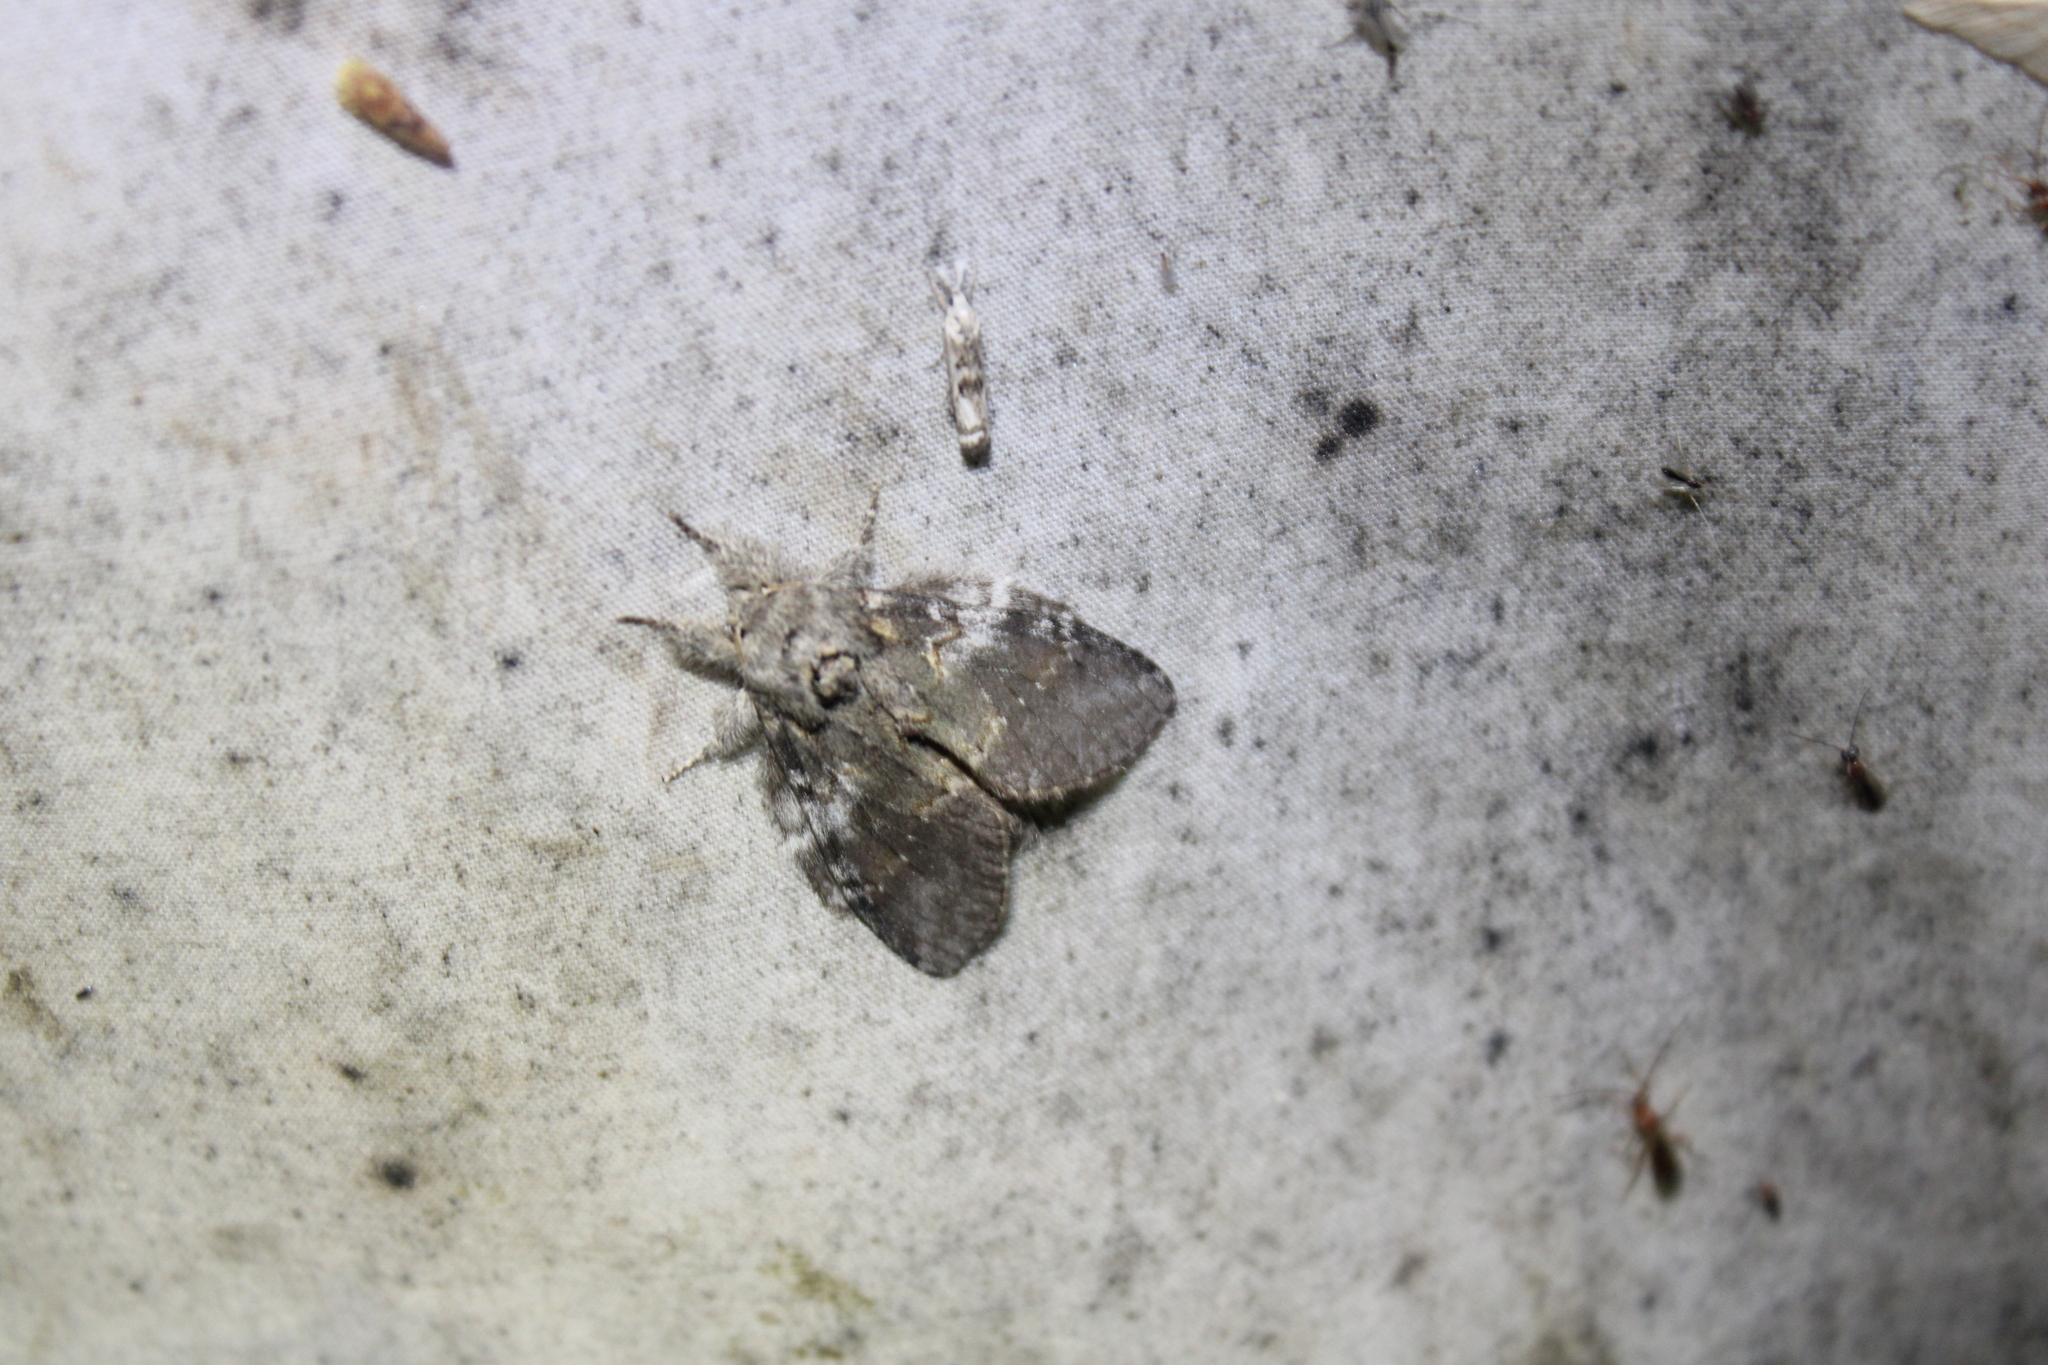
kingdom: Animalia
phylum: Arthropoda
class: Insecta
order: Lepidoptera
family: Notodontidae
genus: Peridea
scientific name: Peridea angulosa
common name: Angulose prominent
